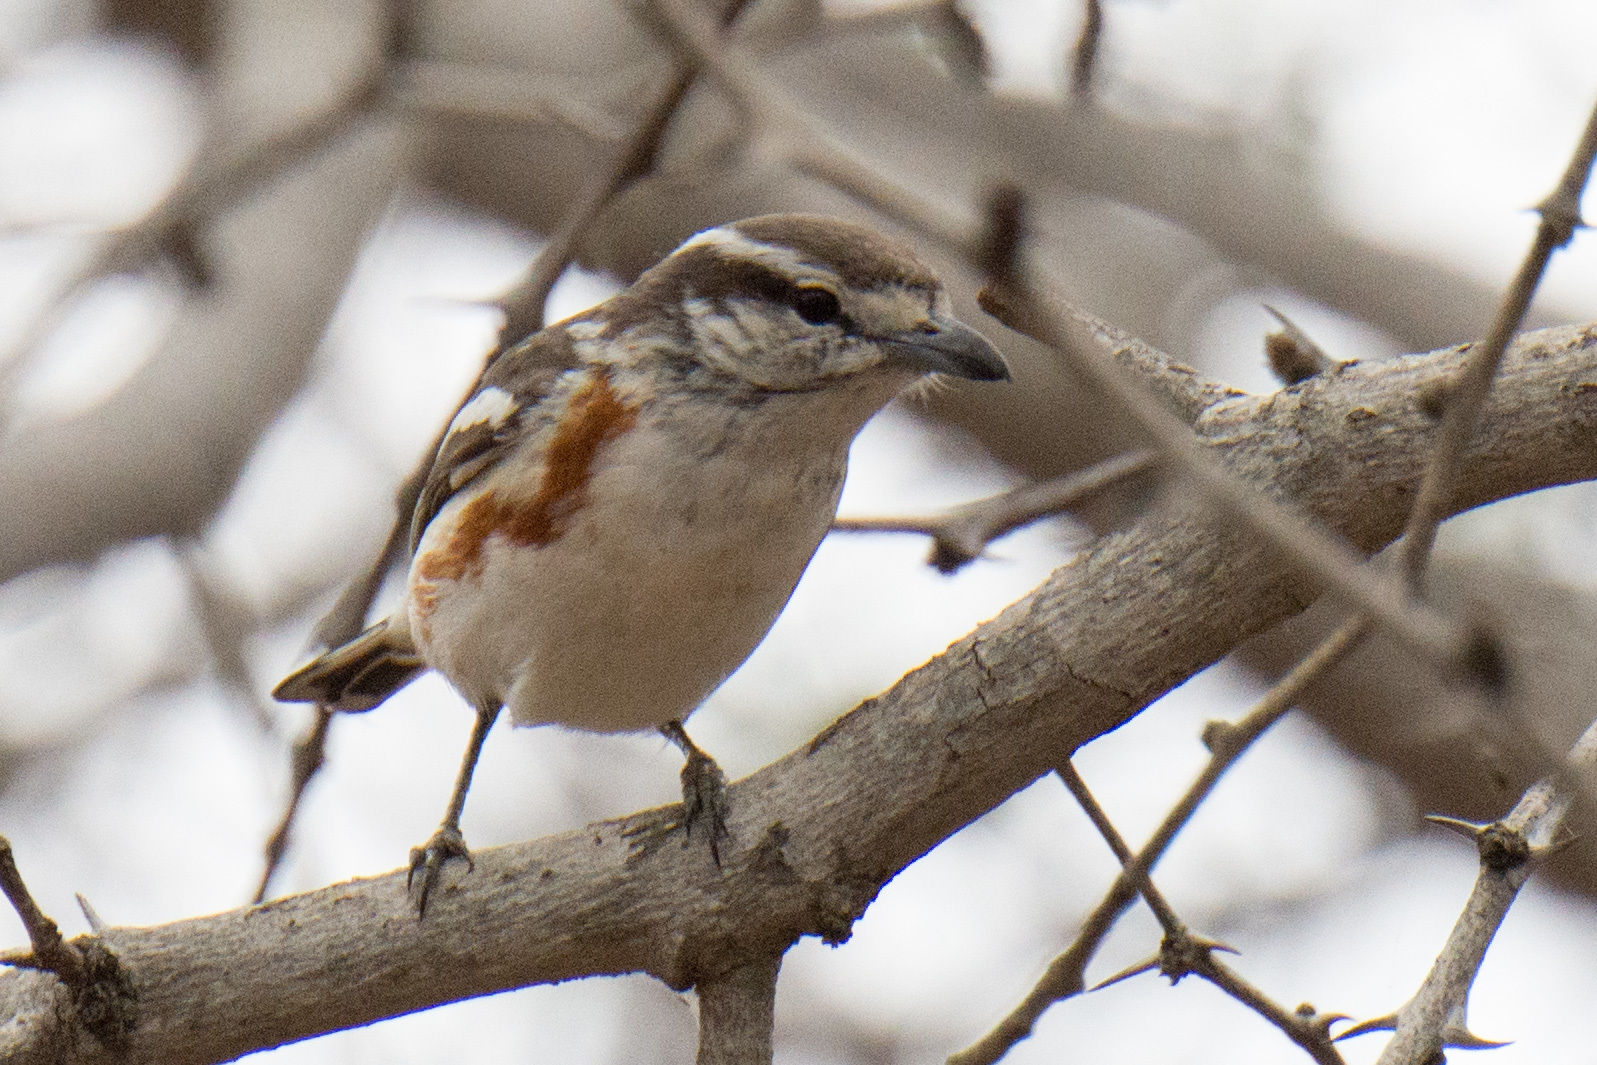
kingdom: Animalia
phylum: Chordata
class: Aves
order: Passeriformes
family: Malaconotidae
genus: Nilaus
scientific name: Nilaus afer
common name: Brubru
